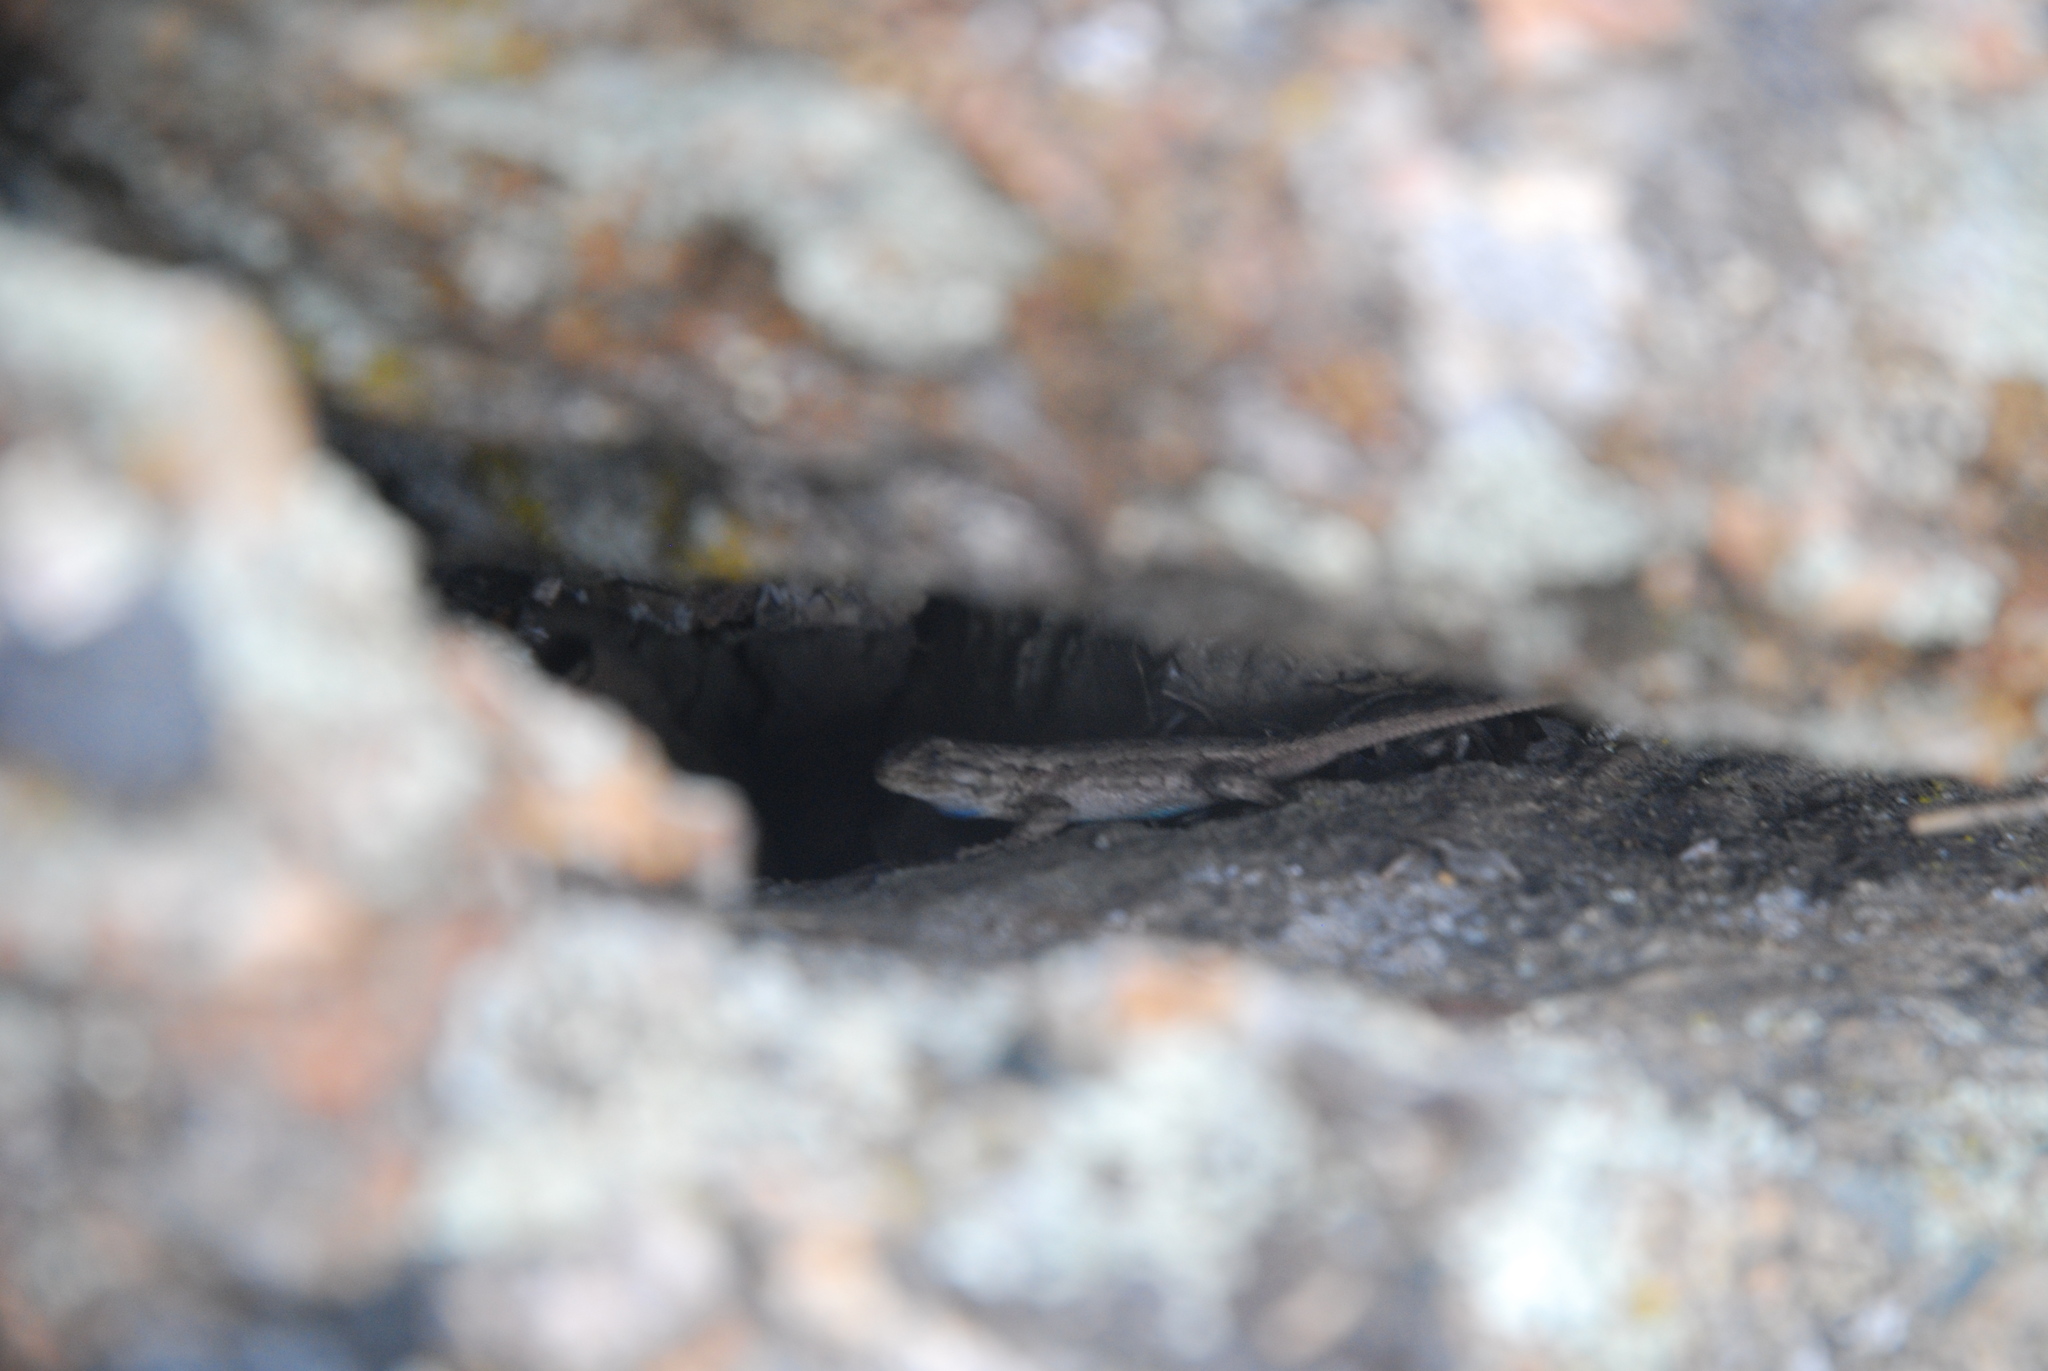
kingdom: Animalia
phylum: Chordata
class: Squamata
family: Phrynosomatidae
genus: Sceloporus
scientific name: Sceloporus occidentalis
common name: Western fence lizard
